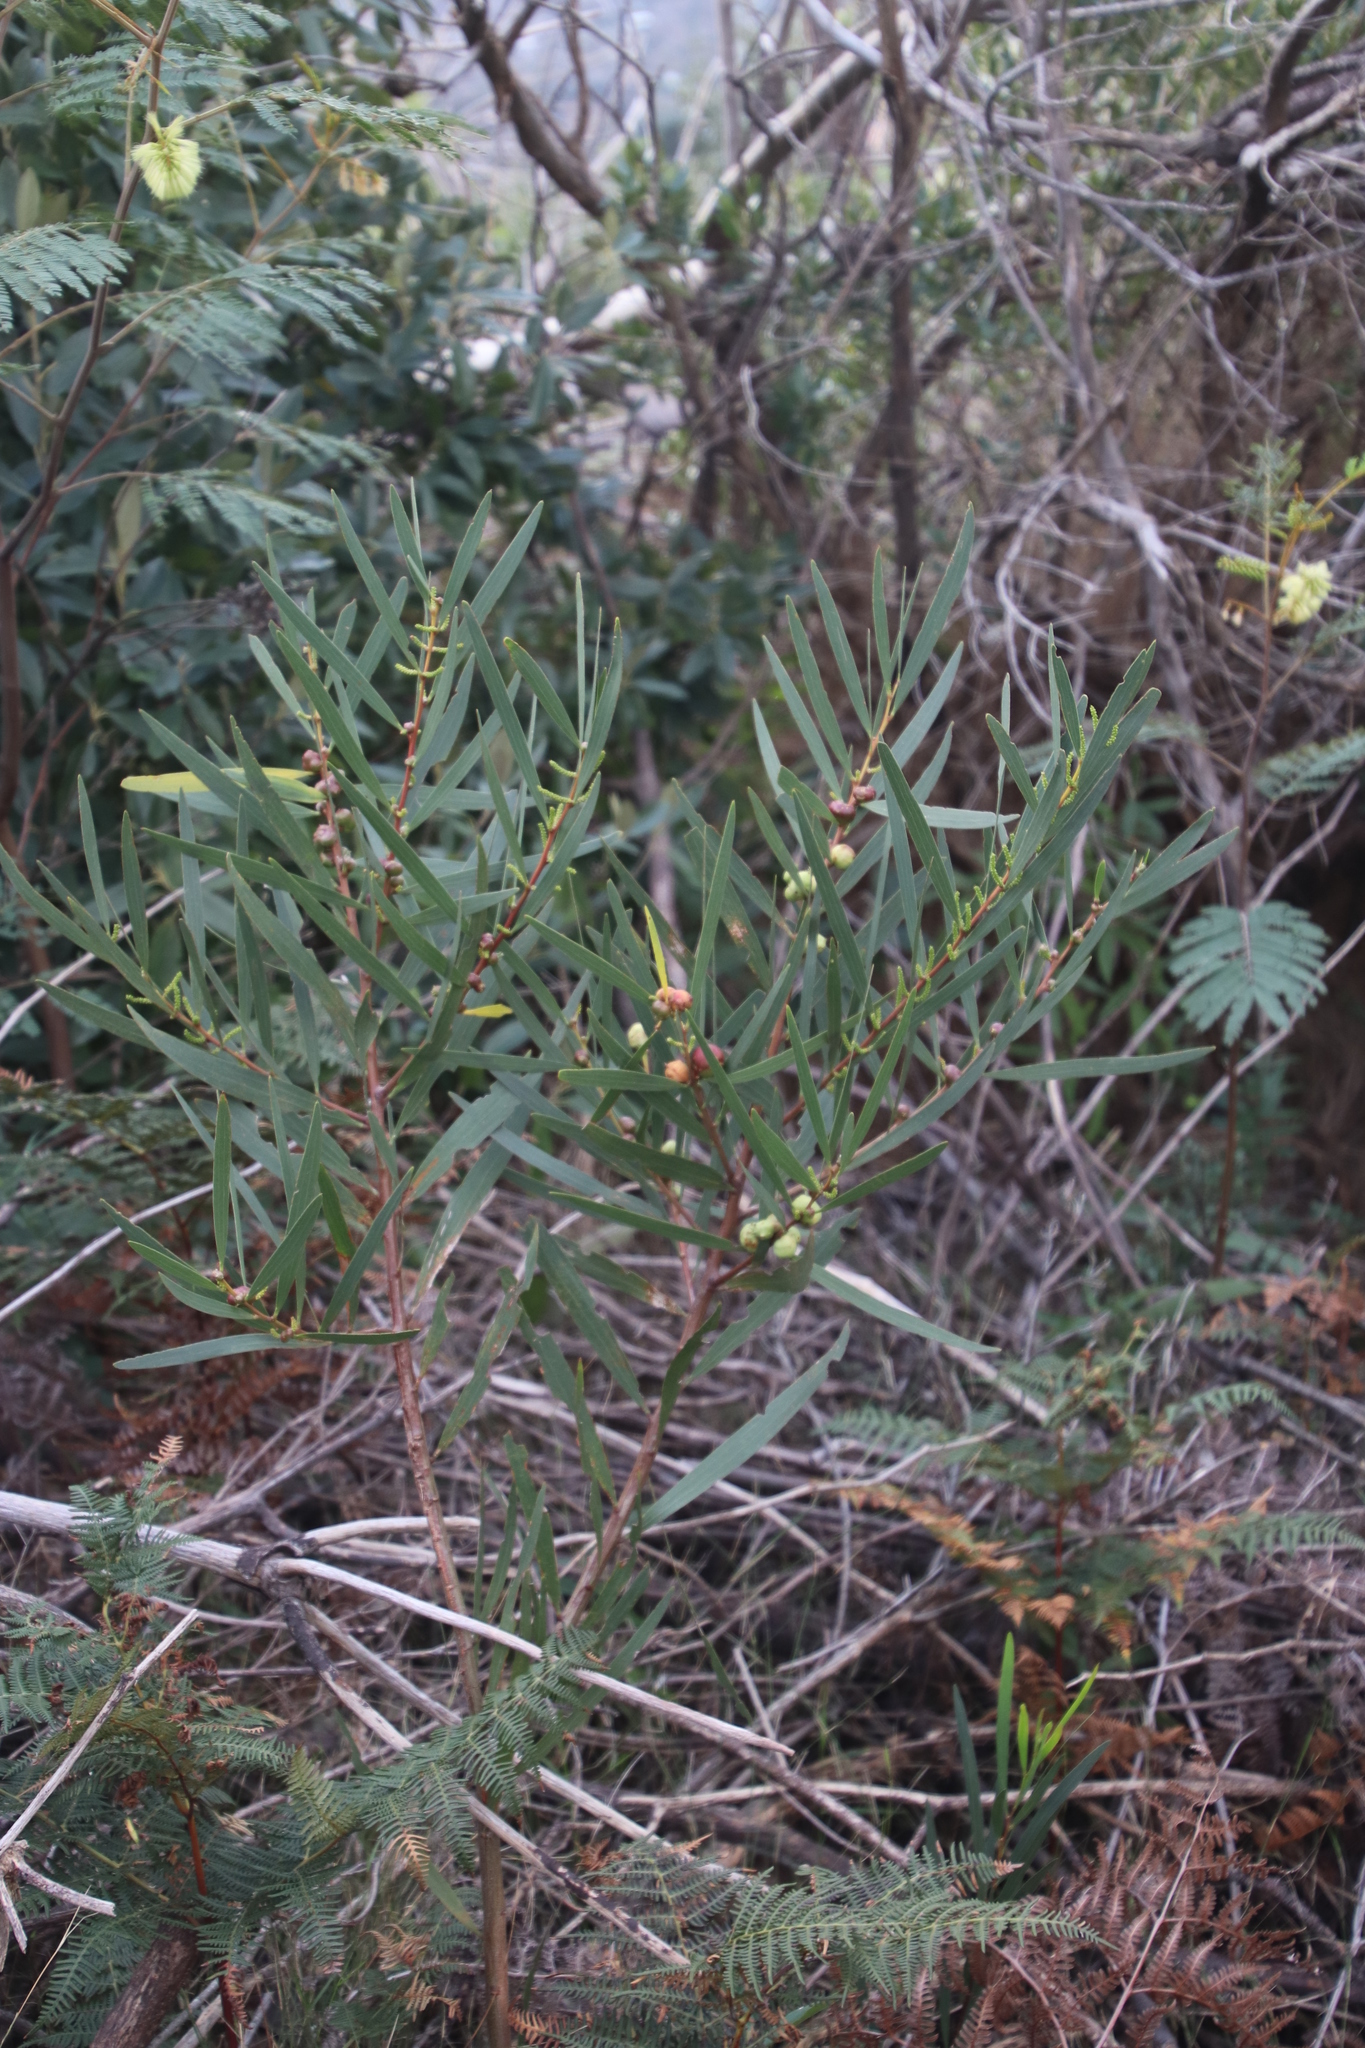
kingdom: Plantae
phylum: Tracheophyta
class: Magnoliopsida
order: Fabales
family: Fabaceae
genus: Acacia
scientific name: Acacia longifolia
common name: Sydney golden wattle
